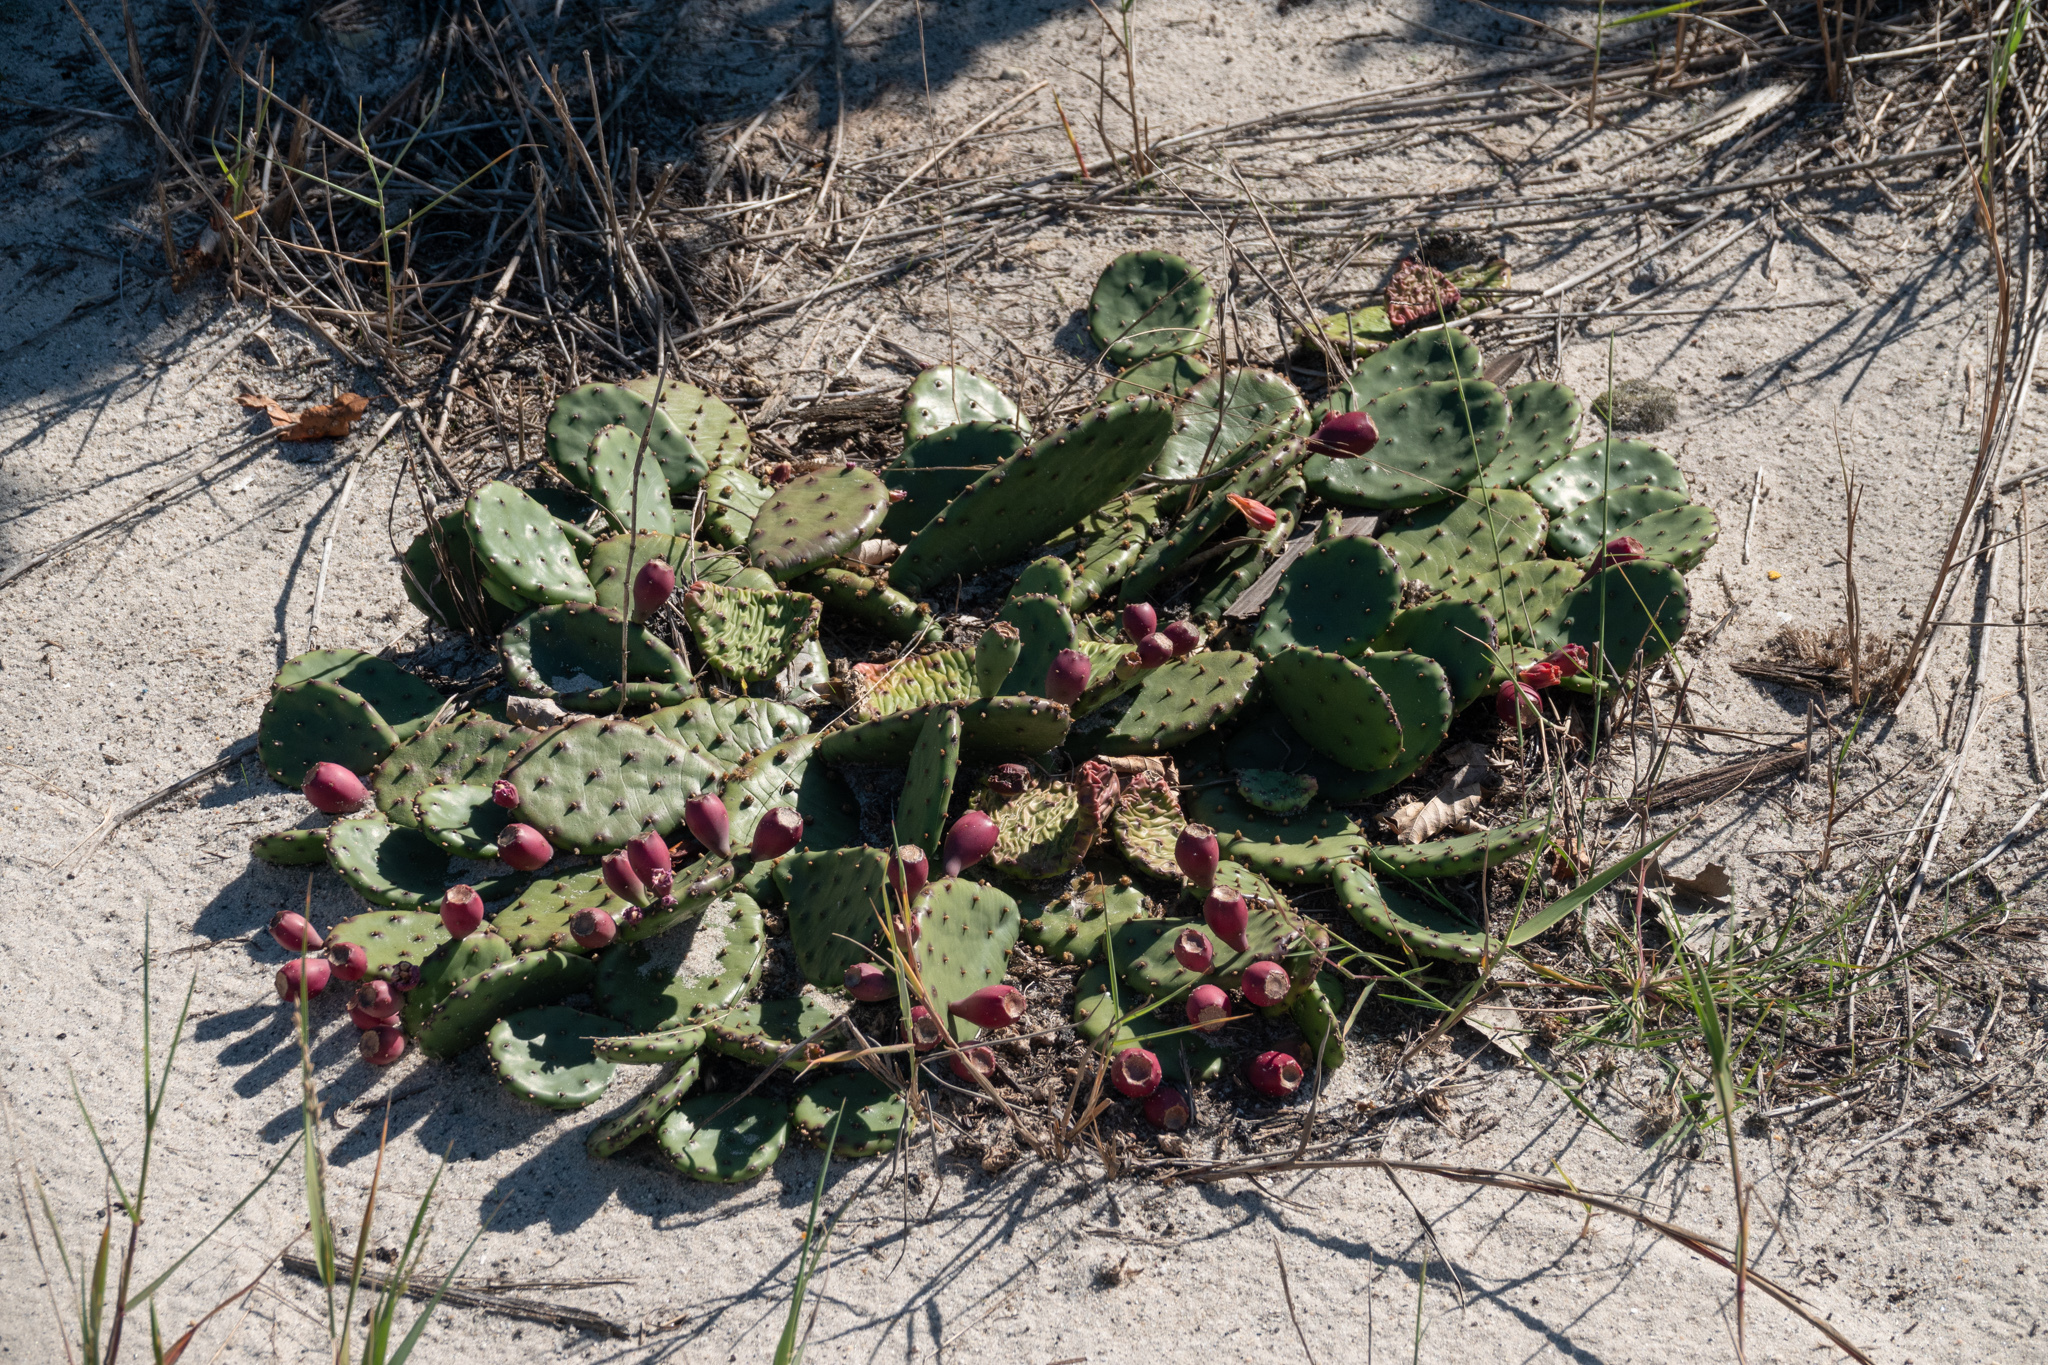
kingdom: Plantae
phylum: Tracheophyta
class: Magnoliopsida
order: Caryophyllales
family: Cactaceae
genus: Opuntia
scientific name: Opuntia humifusa
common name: Eastern prickly-pear
